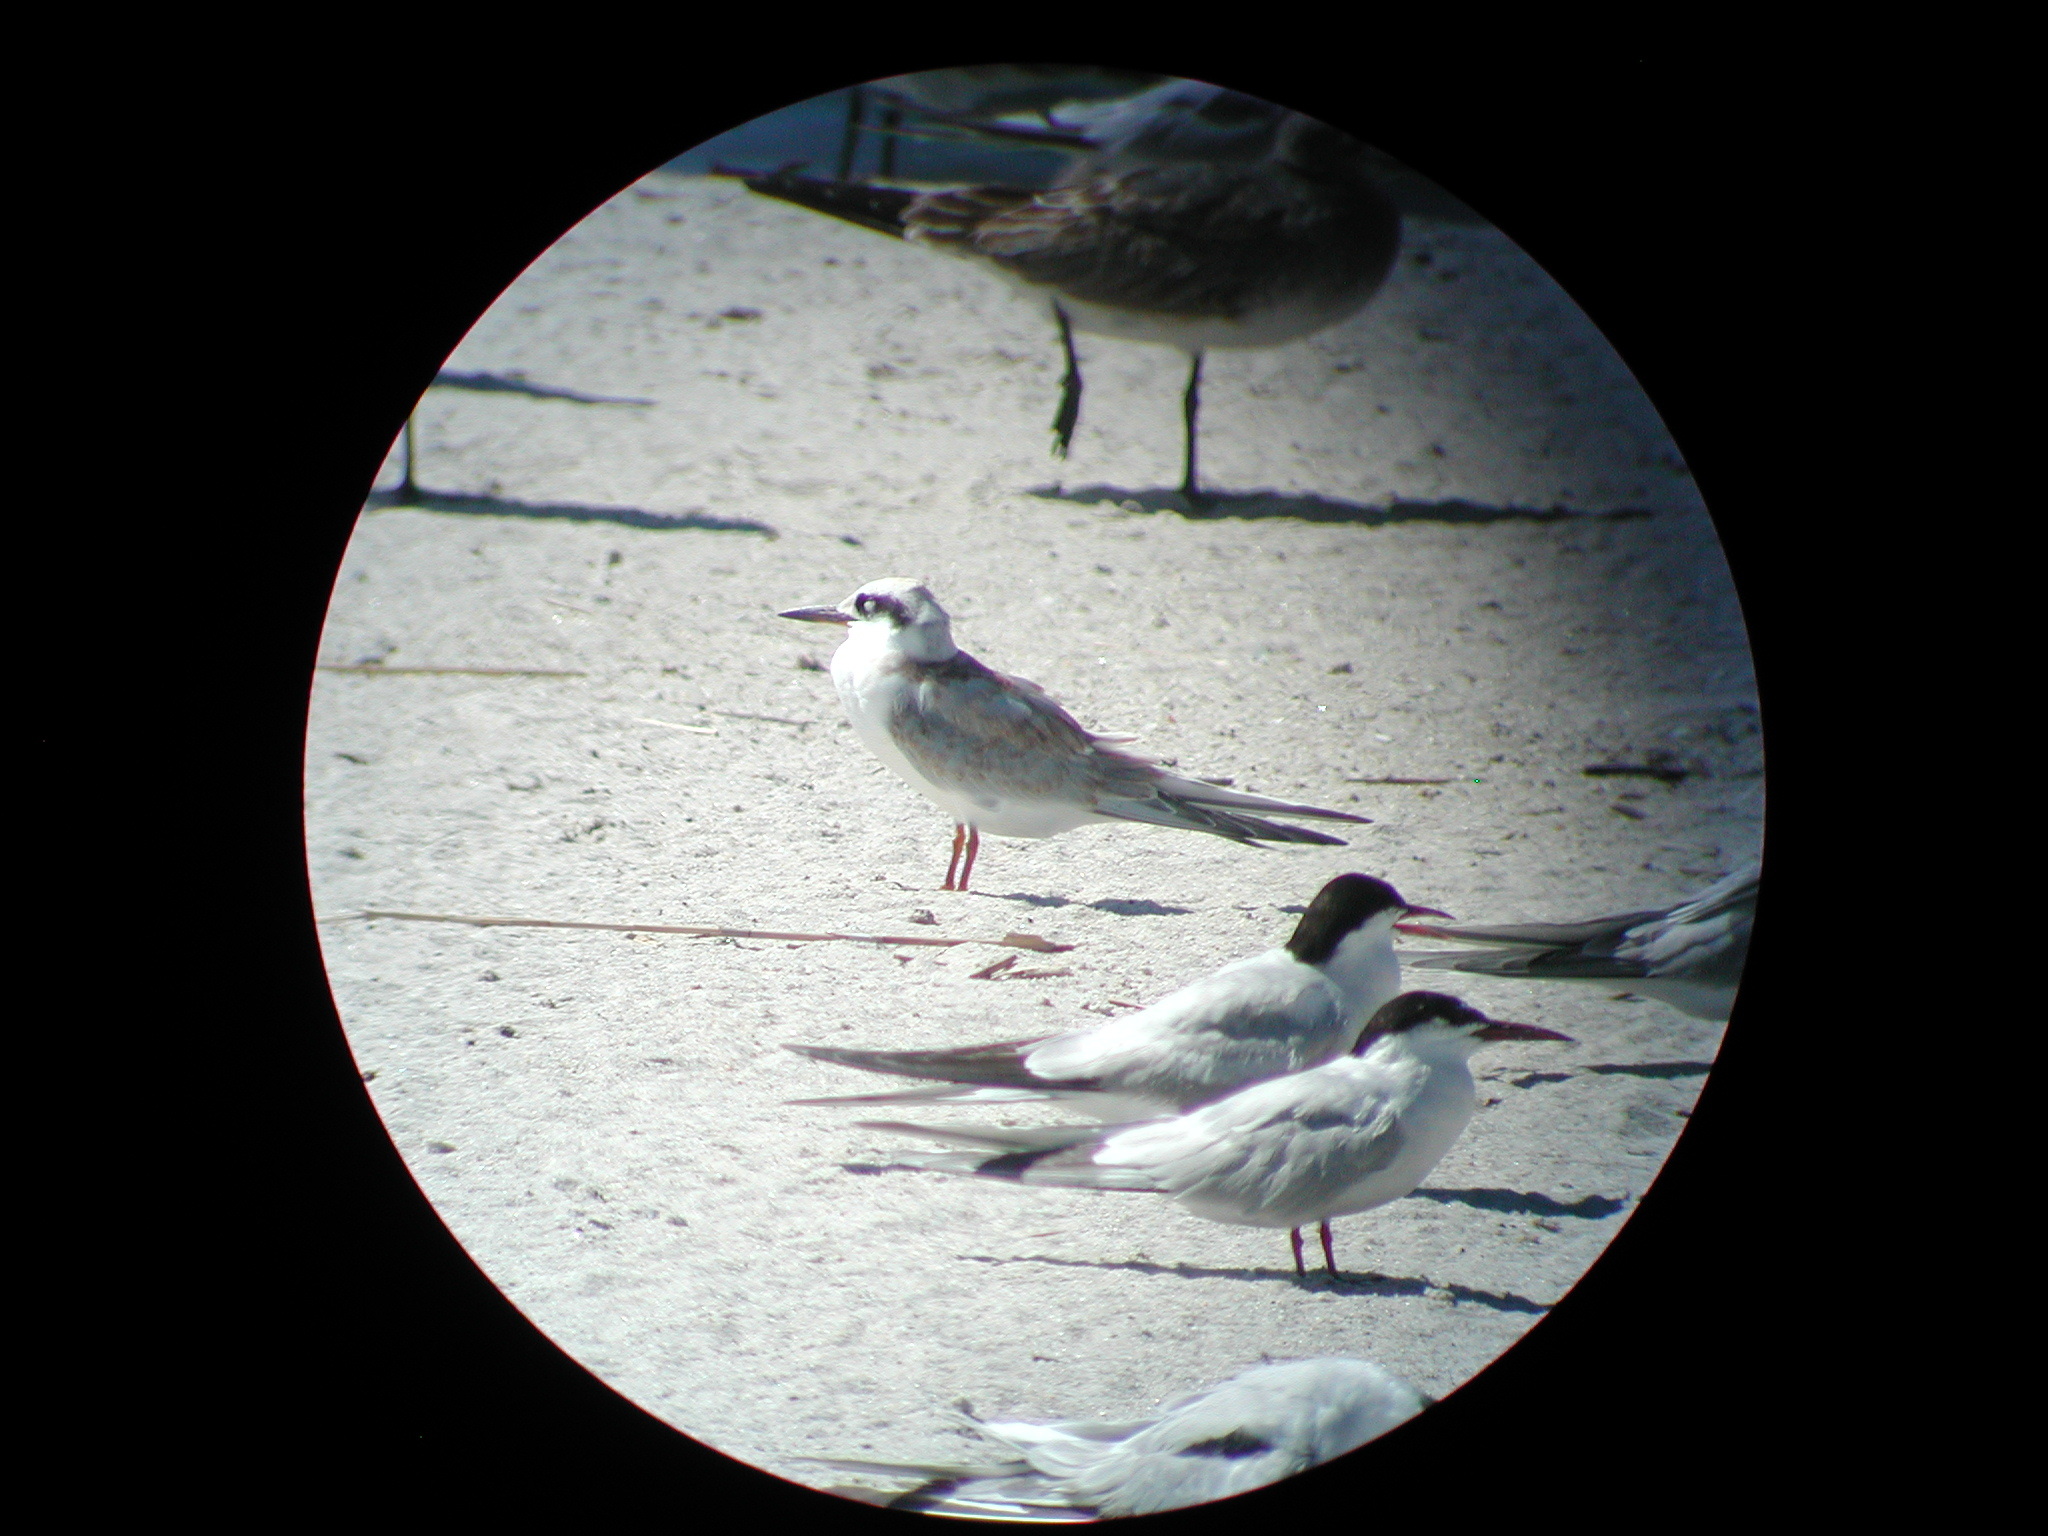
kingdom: Animalia
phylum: Chordata
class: Aves
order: Charadriiformes
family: Laridae
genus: Sterna
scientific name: Sterna forsteri
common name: Forster's tern
